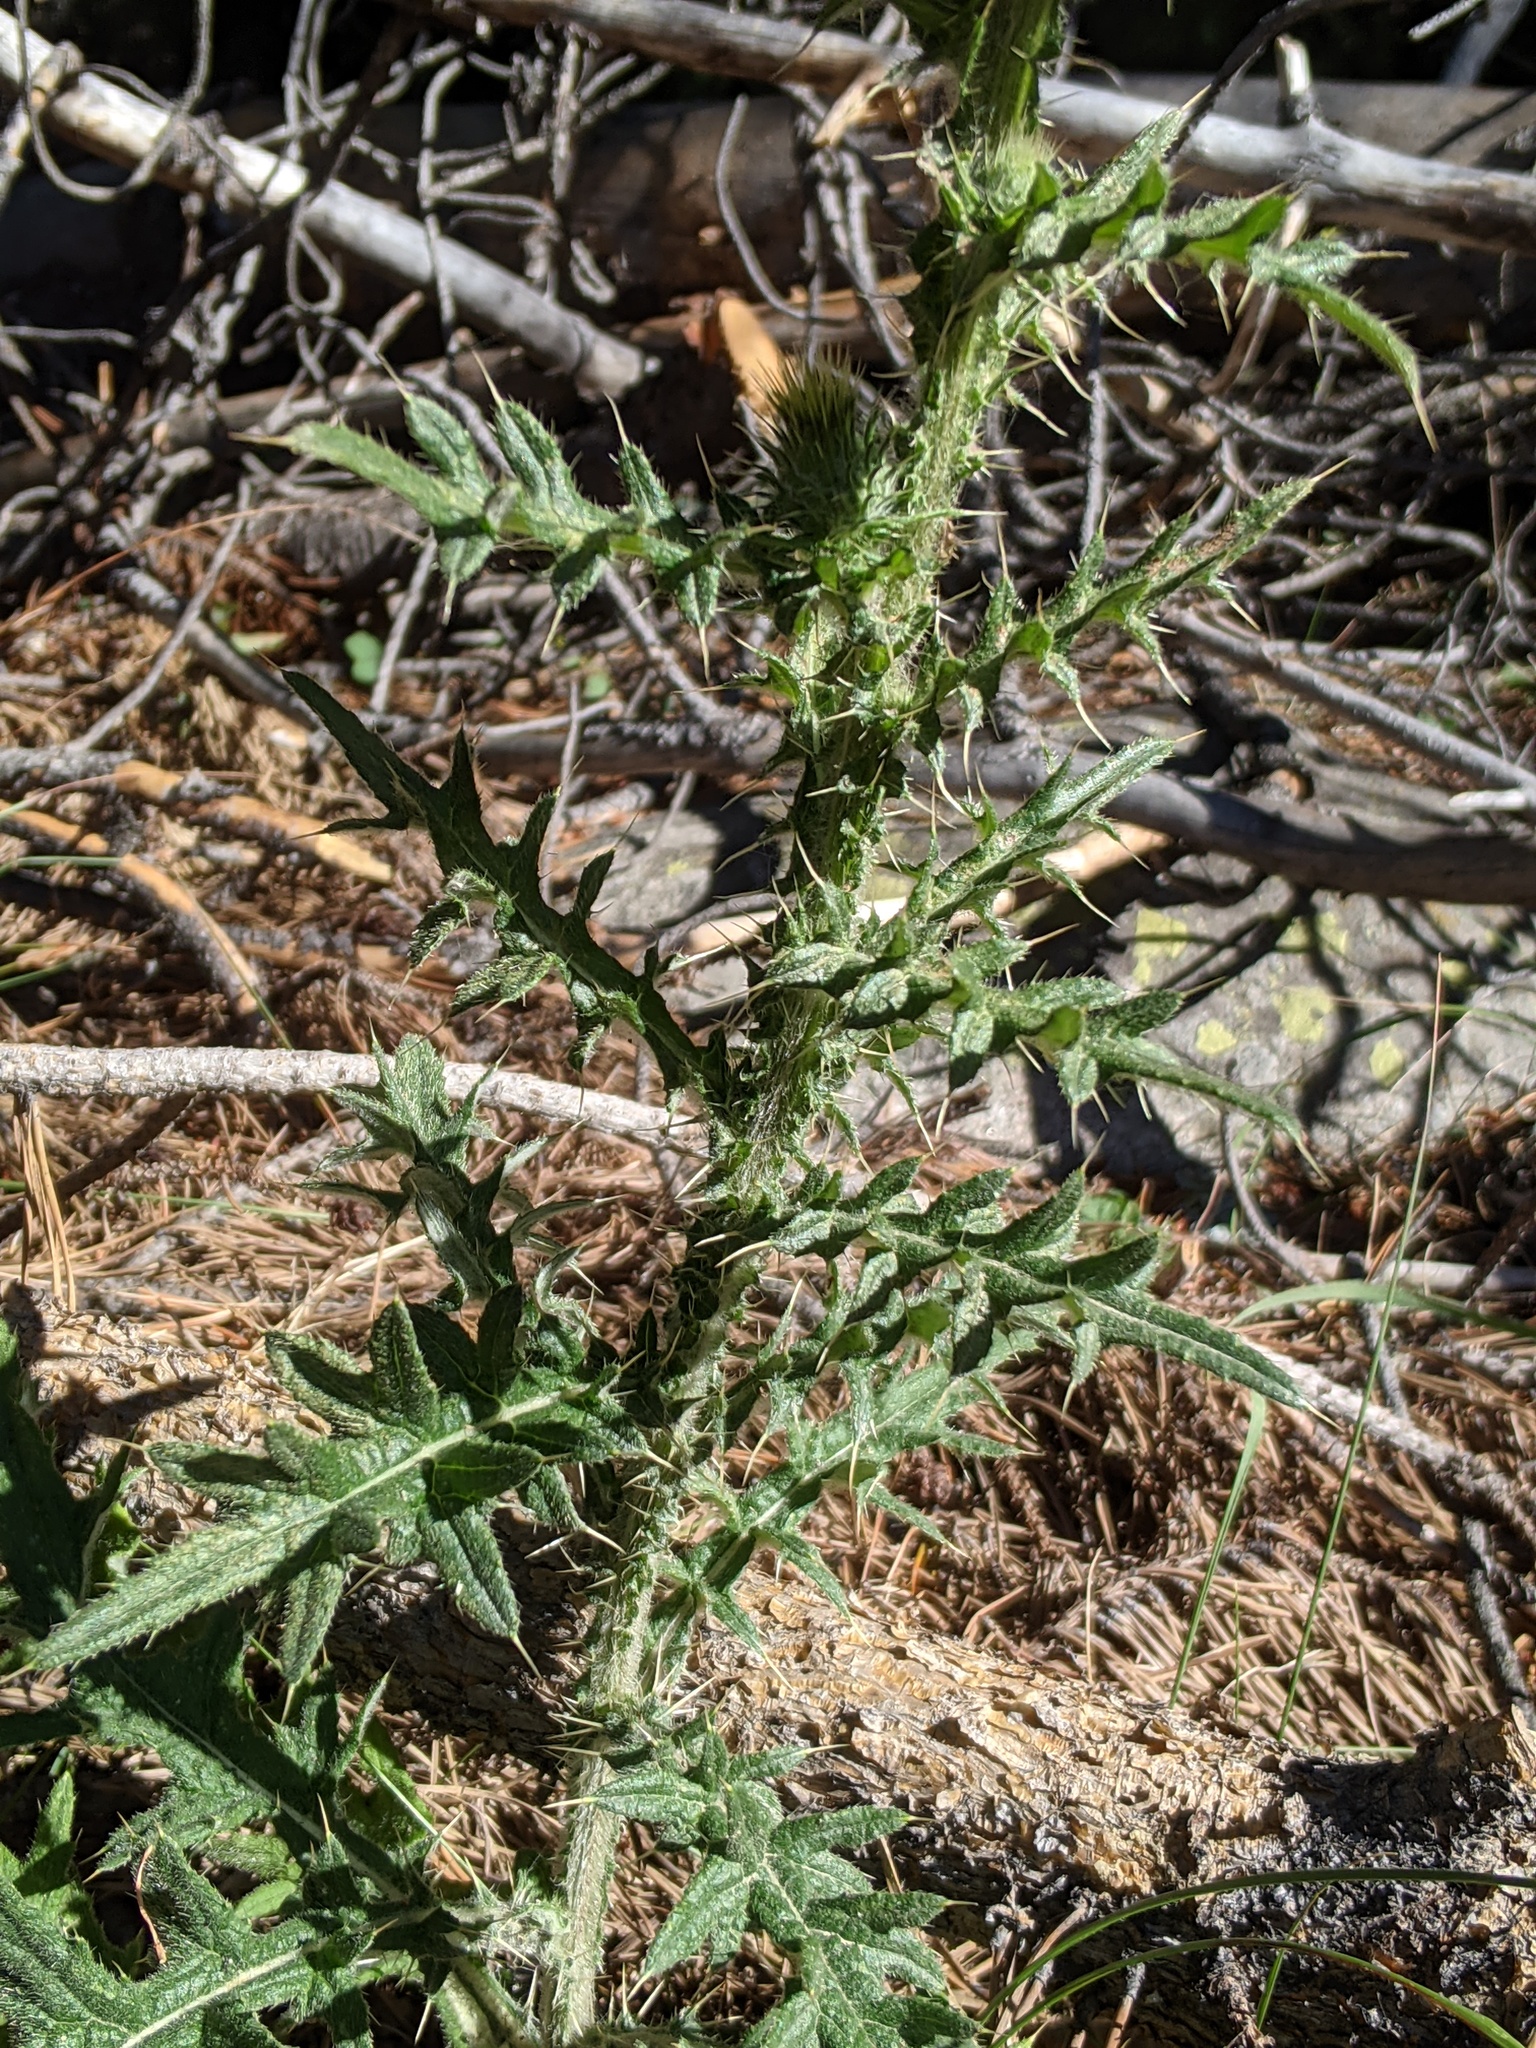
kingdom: Plantae
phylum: Tracheophyta
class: Magnoliopsida
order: Asterales
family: Asteraceae
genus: Cirsium
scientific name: Cirsium vulgare
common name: Bull thistle
